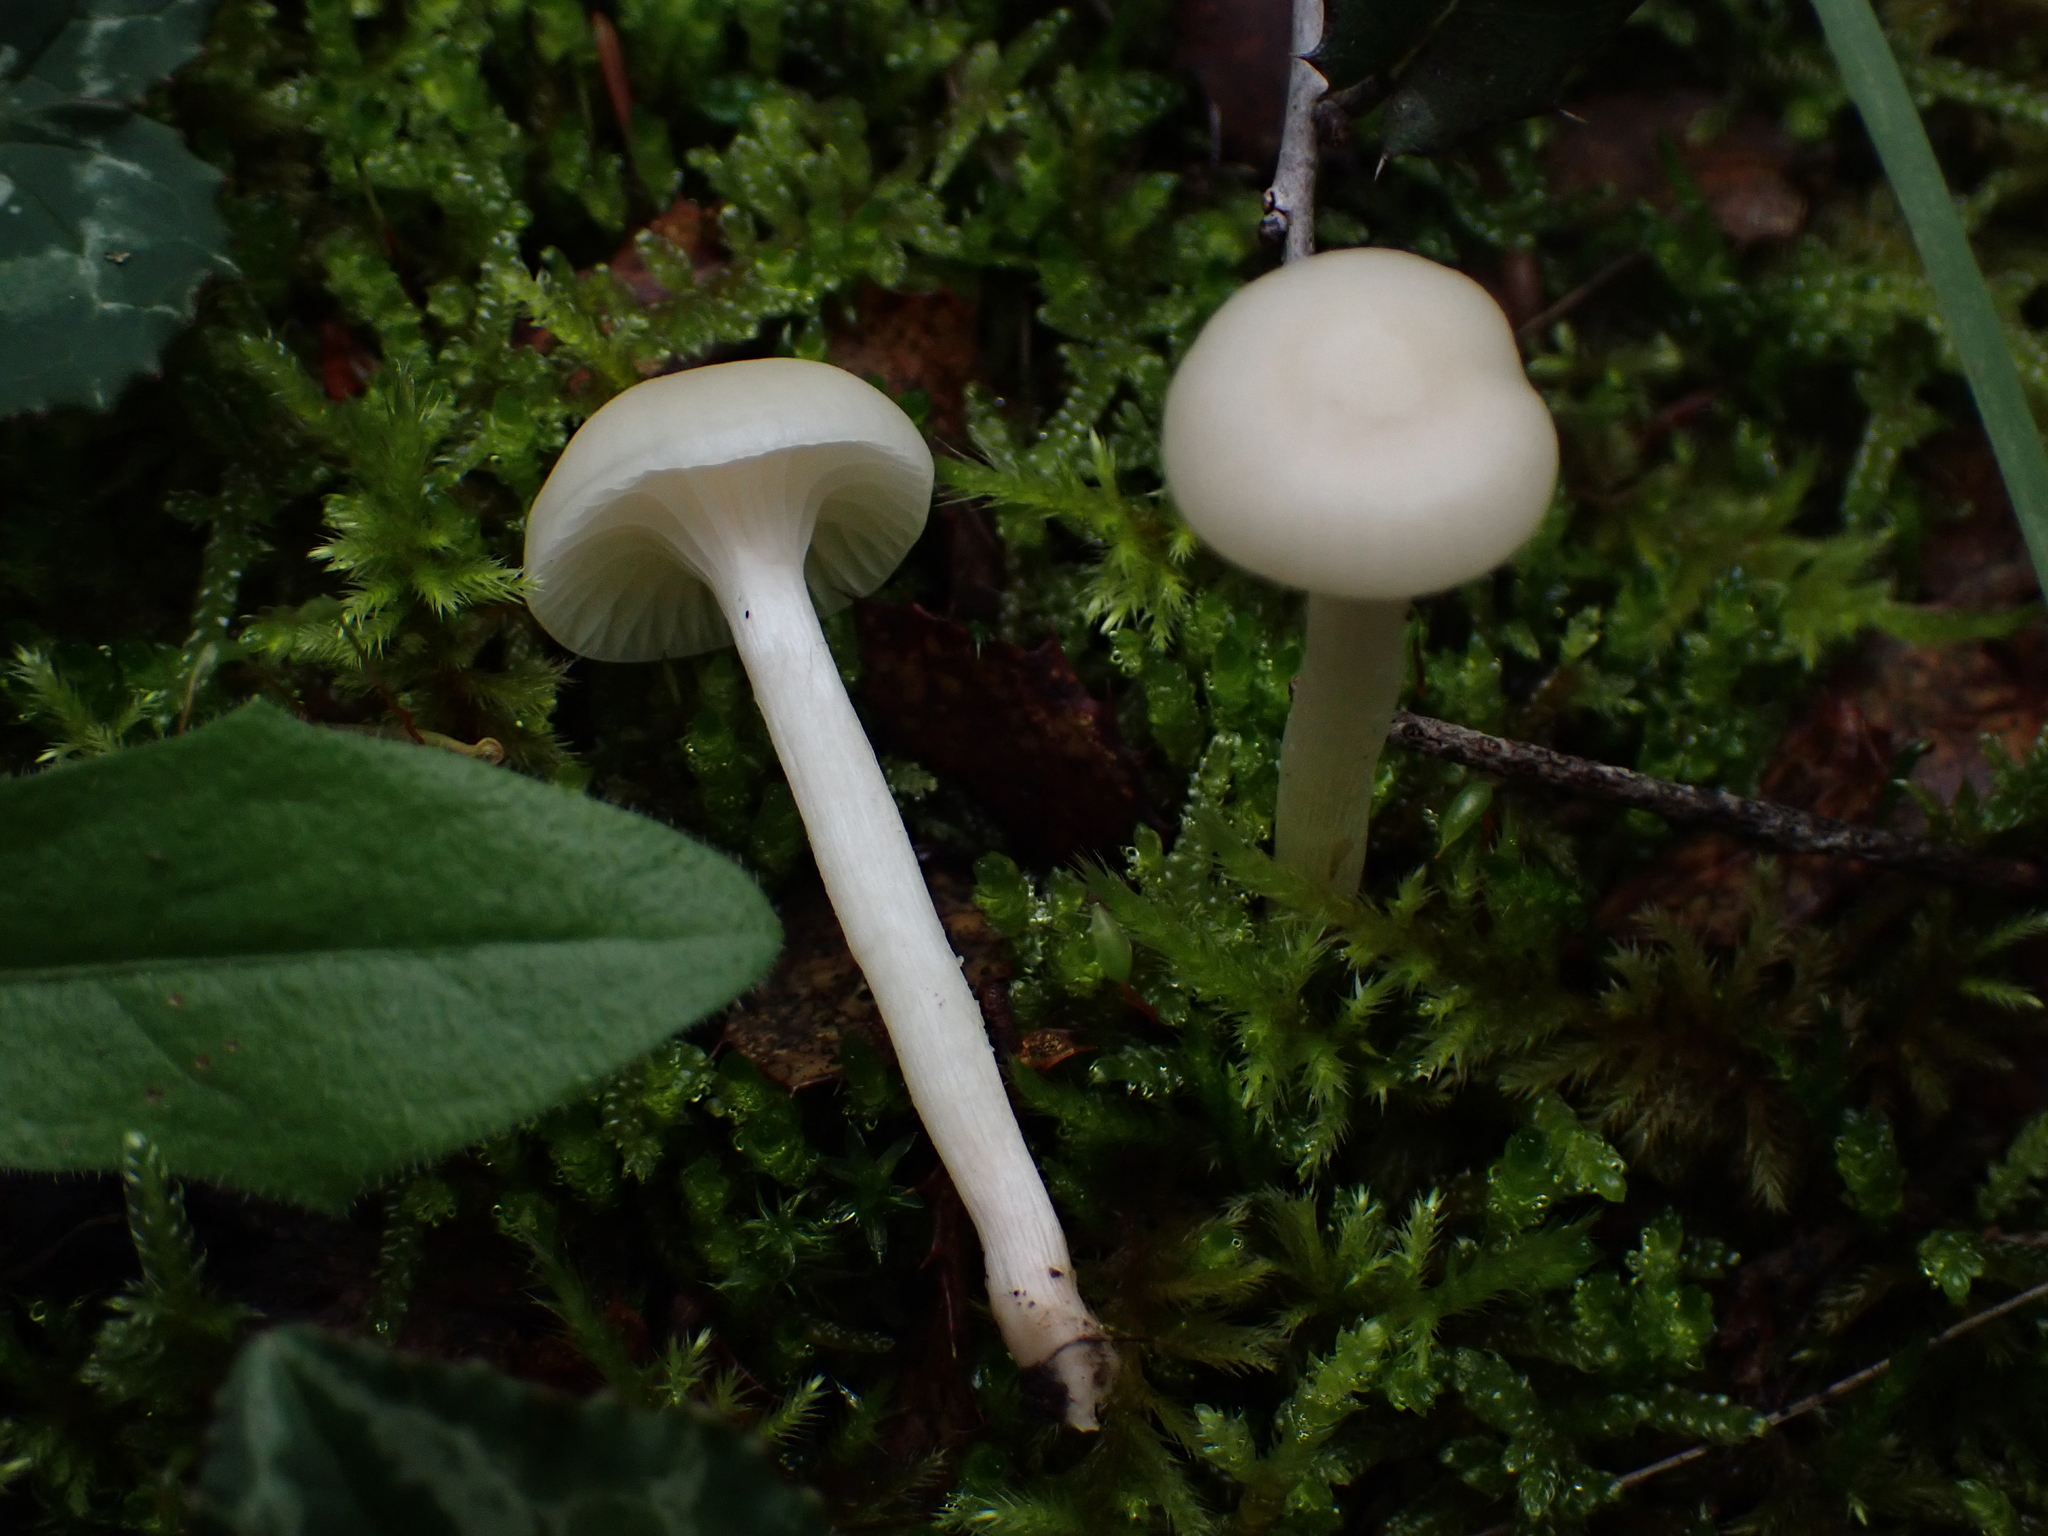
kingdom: Fungi
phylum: Basidiomycota
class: Agaricomycetes
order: Agaricales
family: Hygrophoraceae
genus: Cuphophyllus
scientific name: Cuphophyllus russocoriaceus
